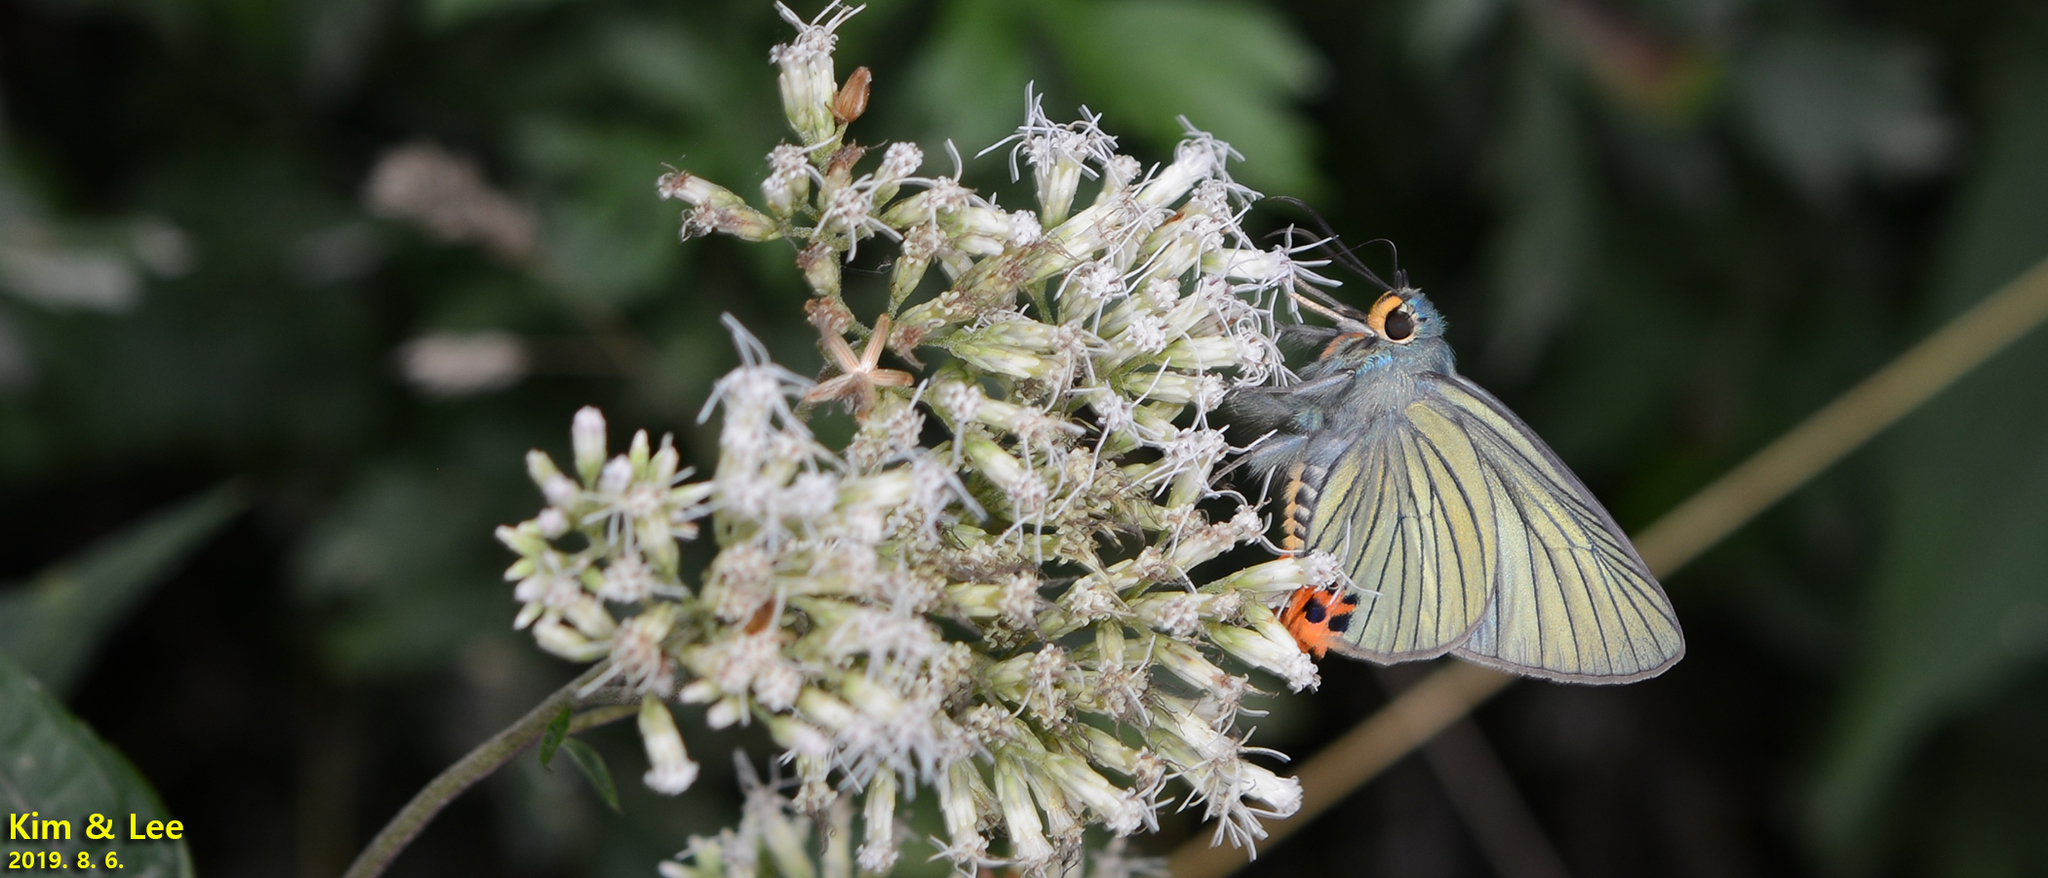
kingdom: Animalia
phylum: Arthropoda
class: Insecta
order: Lepidoptera
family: Hesperiidae
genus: Choaspes
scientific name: Choaspes benjaminii
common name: Indian awlking
